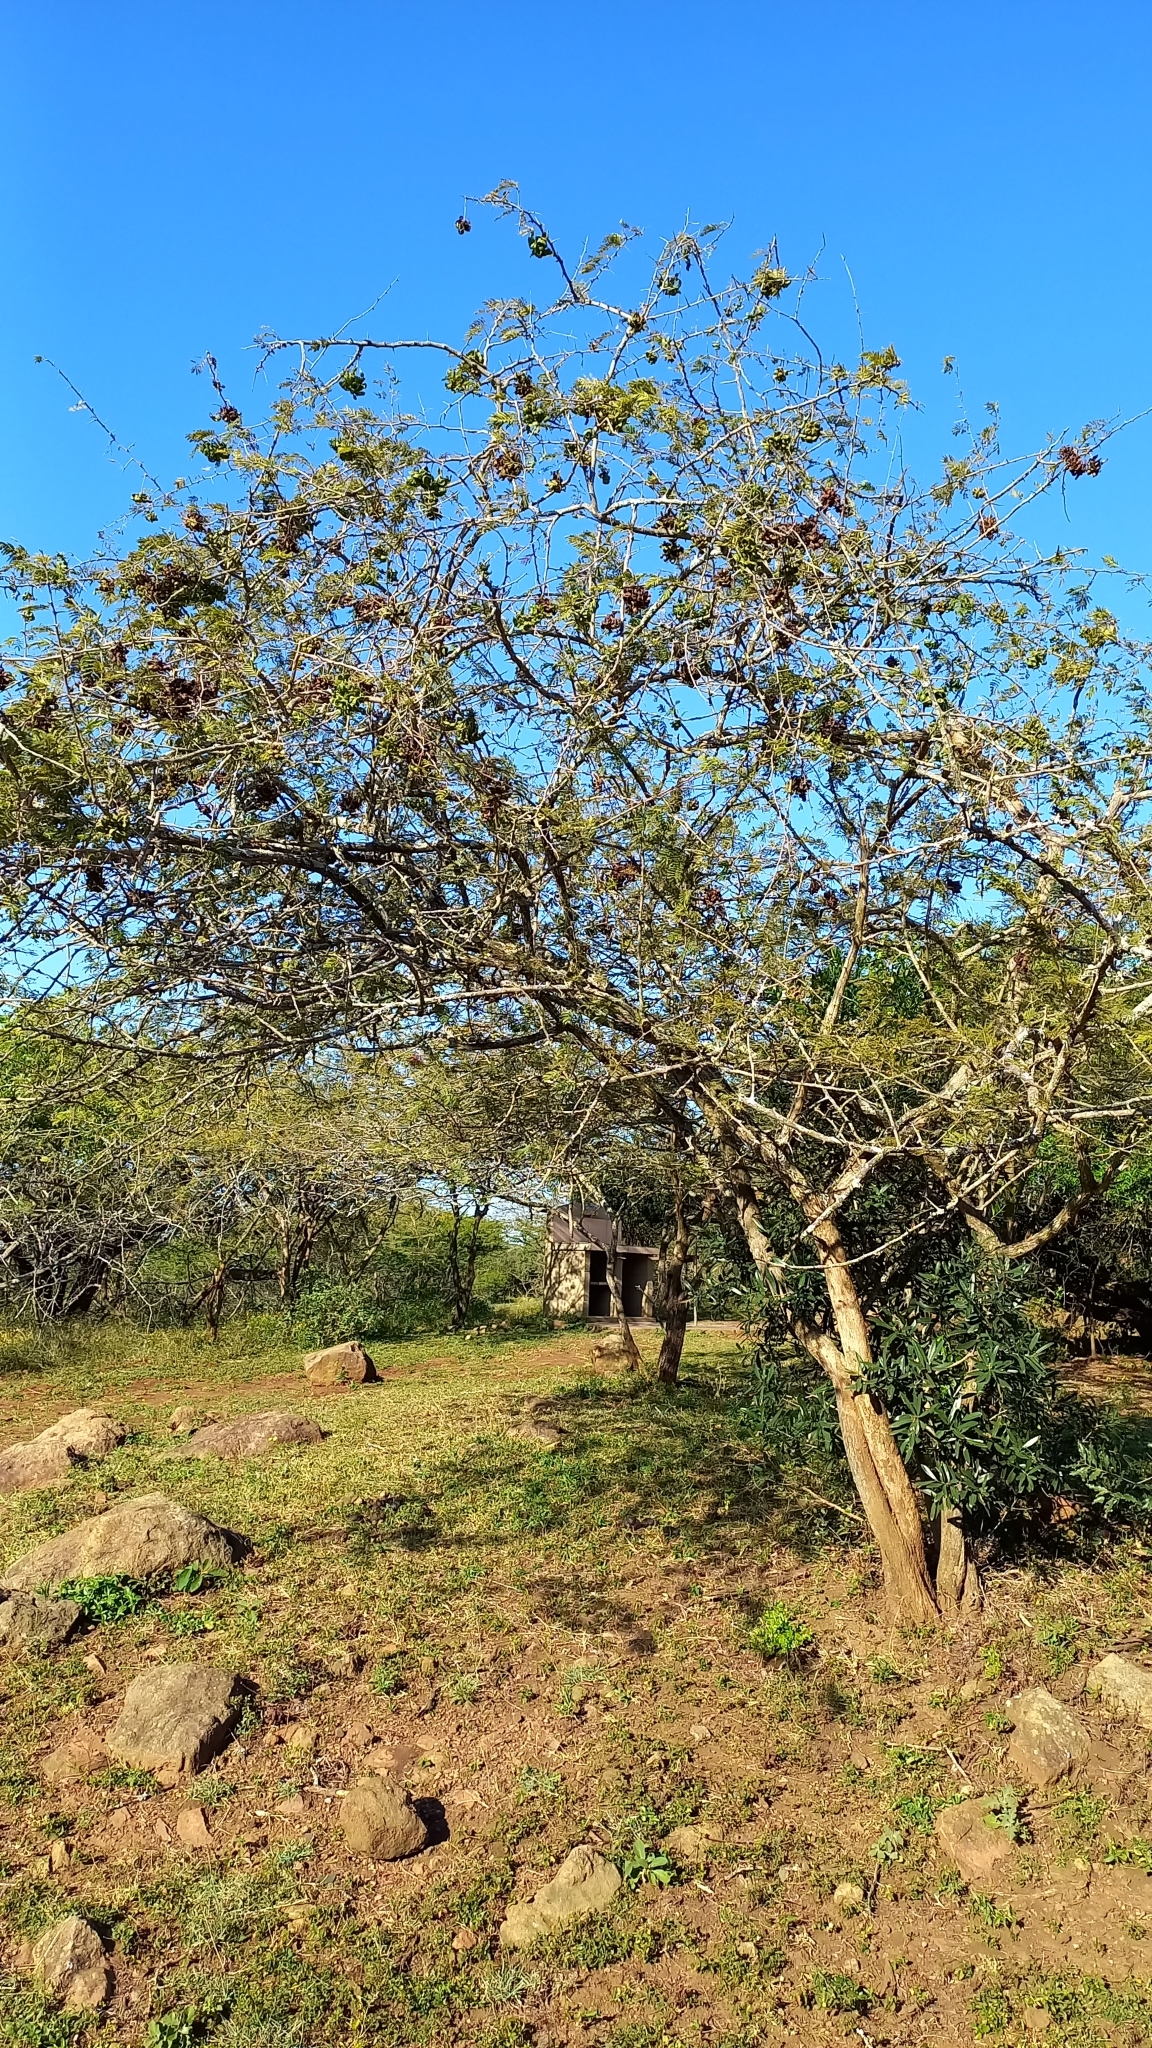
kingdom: Plantae
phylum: Tracheophyta
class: Magnoliopsida
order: Fabales
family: Fabaceae
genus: Dichrostachys
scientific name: Dichrostachys cinerea
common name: Sicklebush
